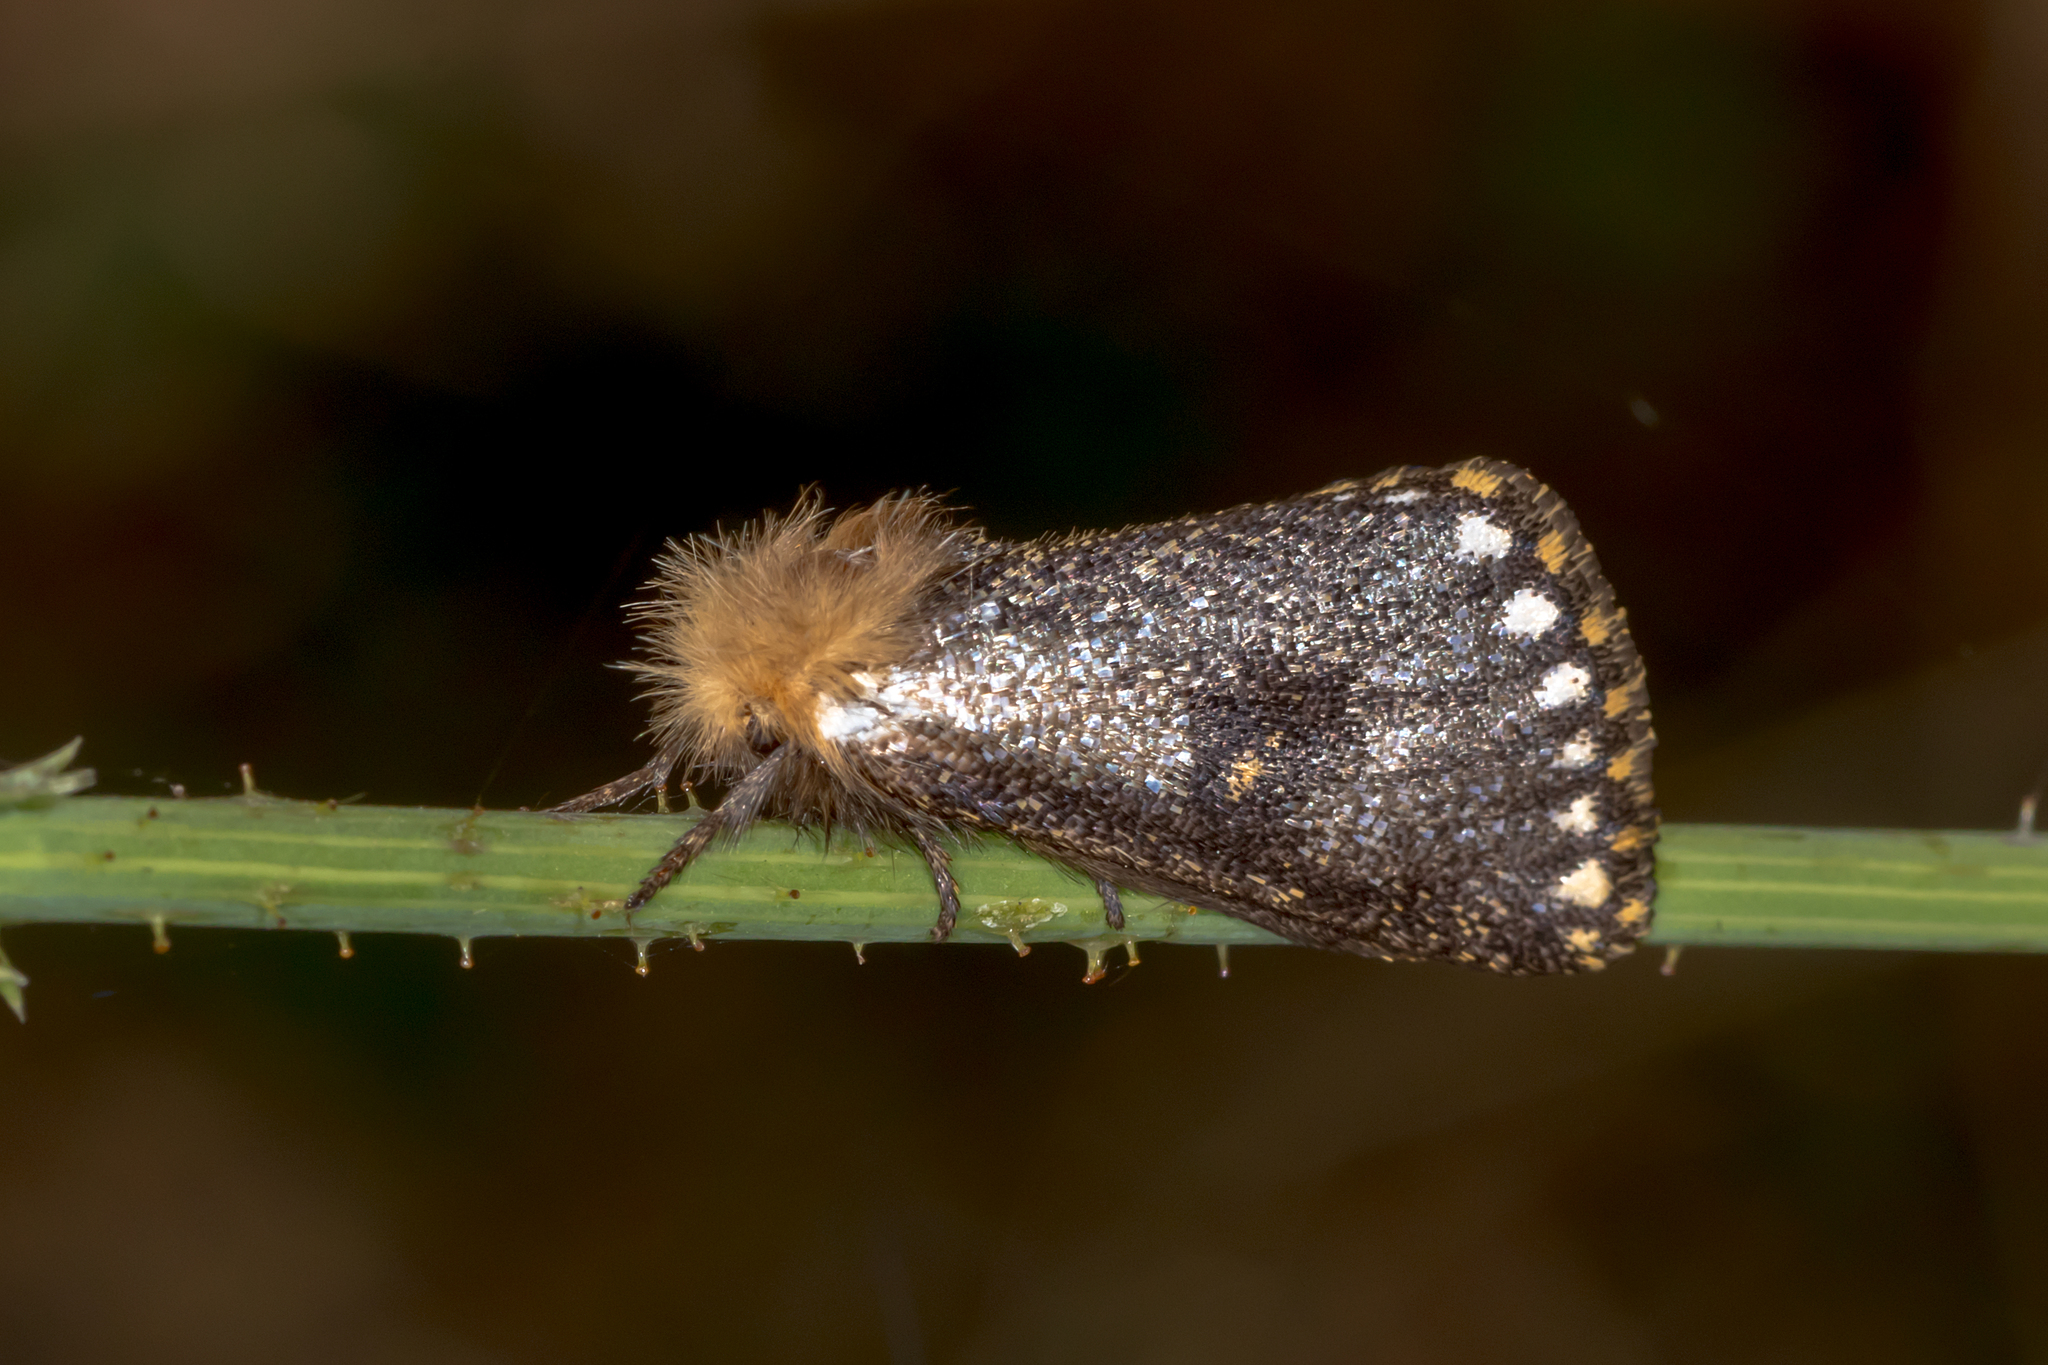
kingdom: Animalia
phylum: Arthropoda
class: Insecta
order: Lepidoptera
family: Notodontidae
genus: Epicoma
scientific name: Epicoma contristis
